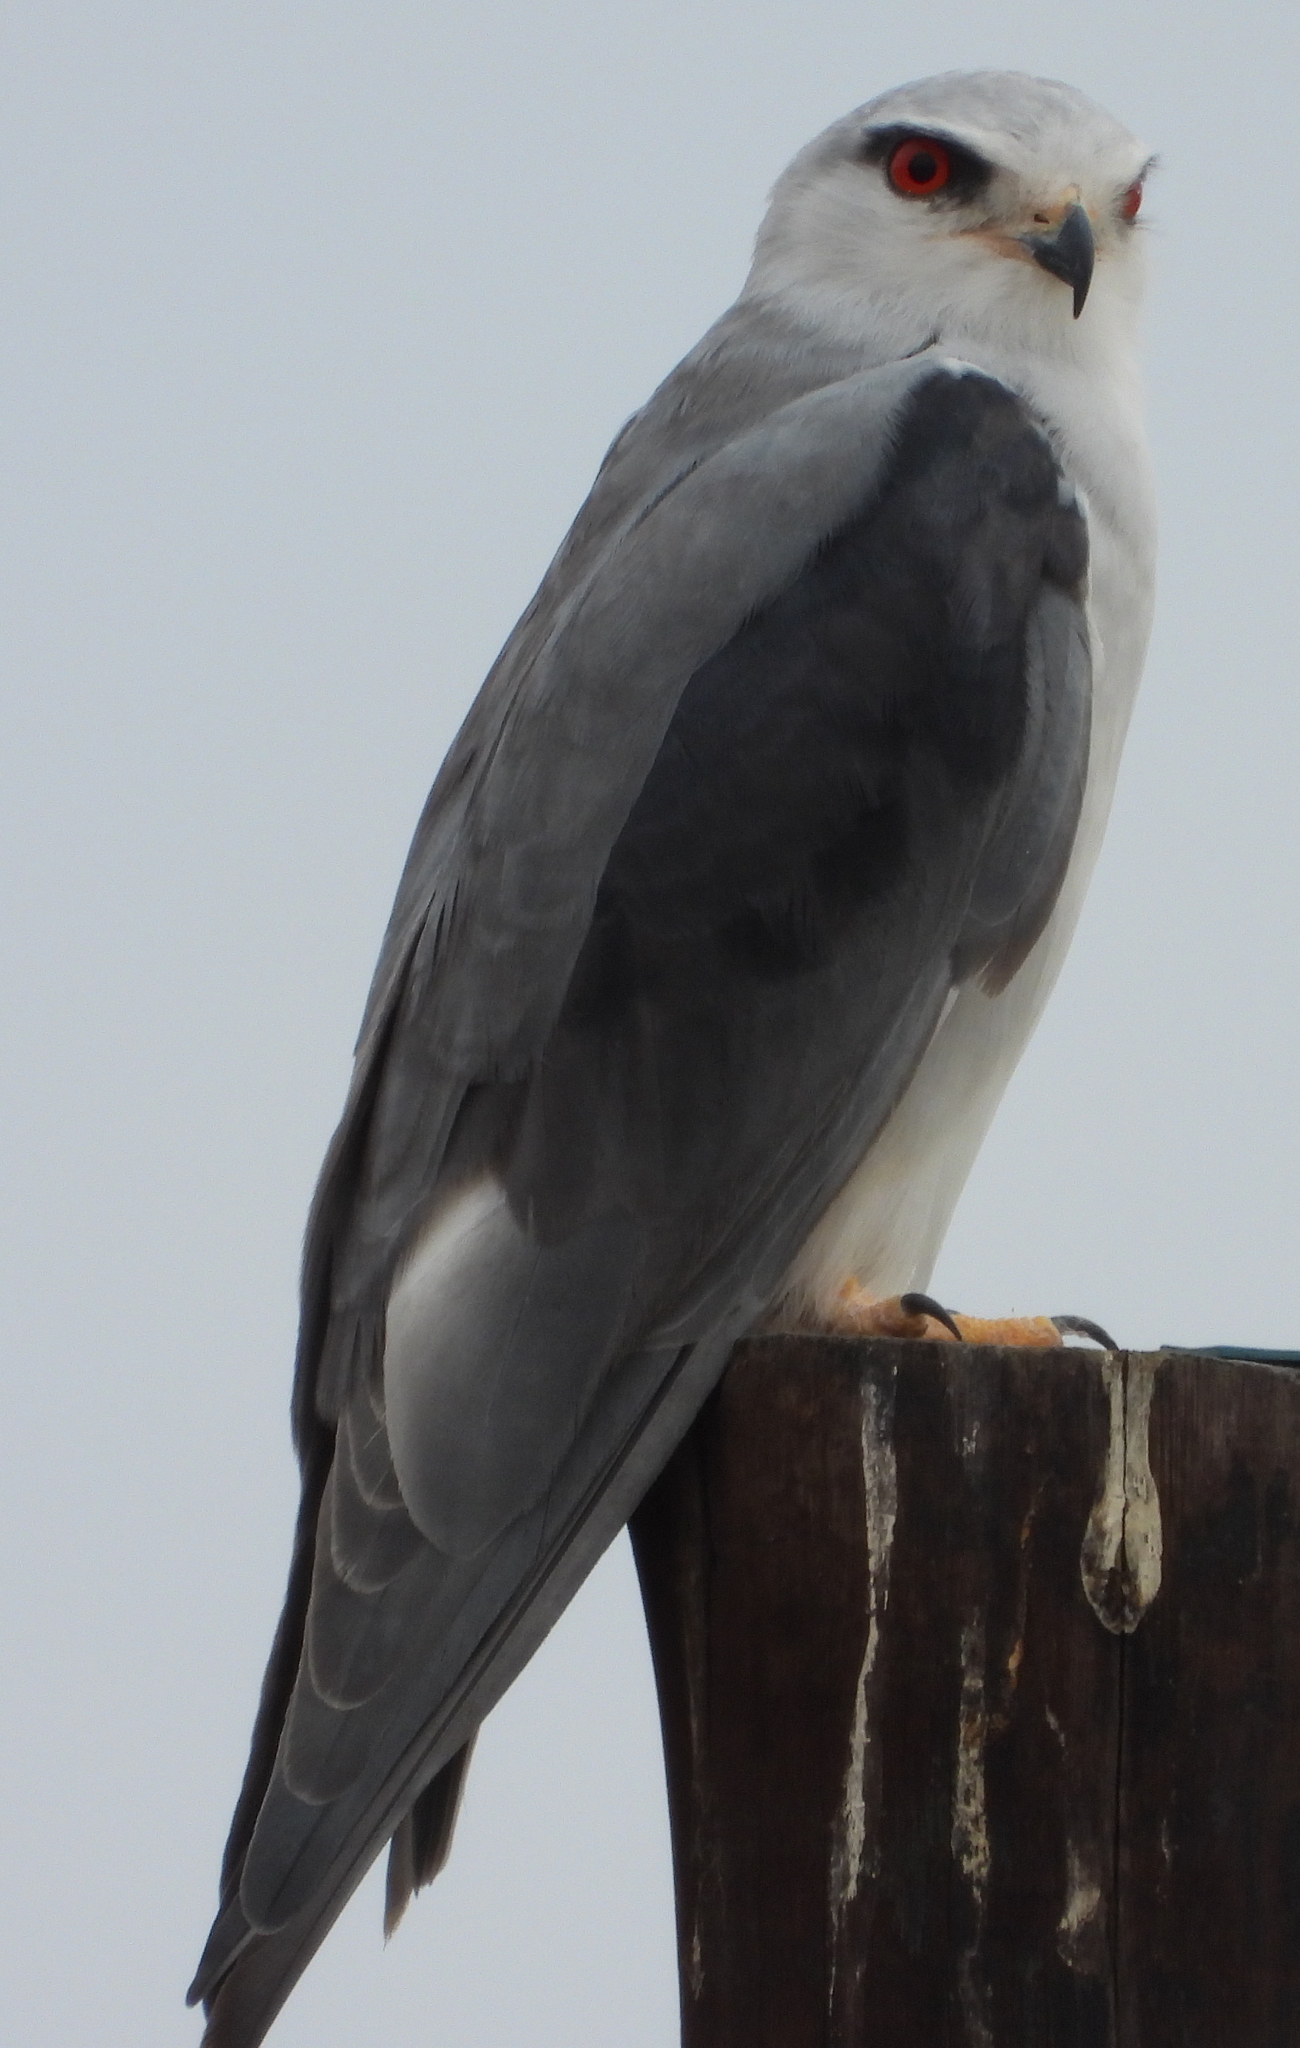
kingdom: Animalia
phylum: Chordata
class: Aves
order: Accipitriformes
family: Accipitridae
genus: Elanus
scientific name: Elanus caeruleus
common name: Black-winged kite
